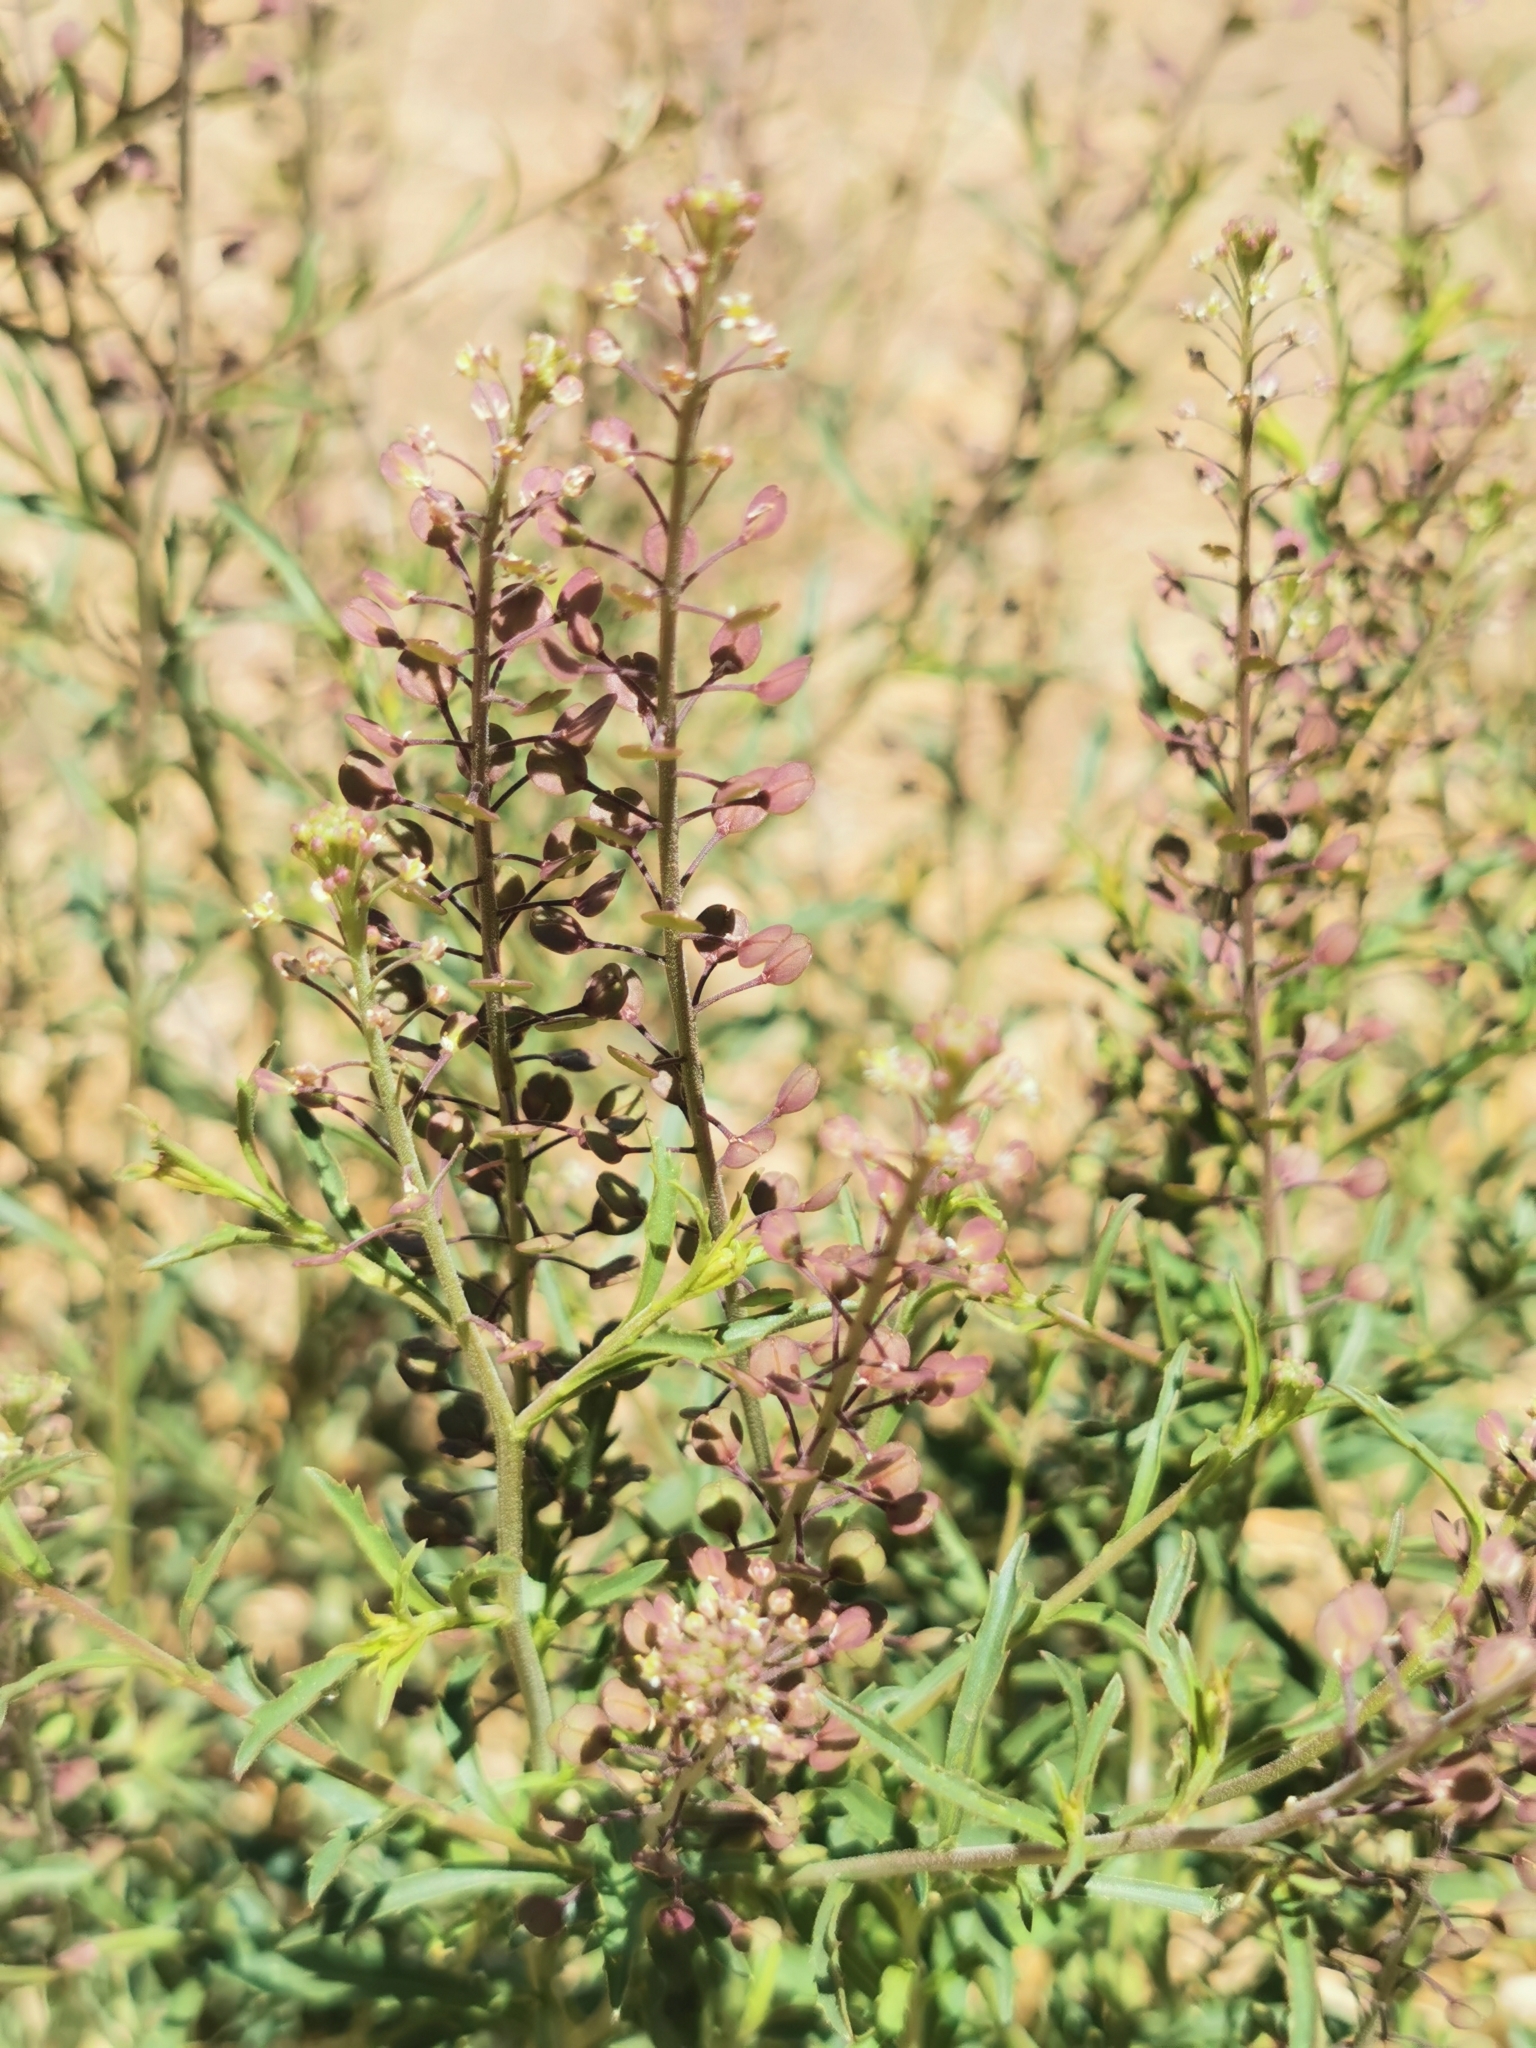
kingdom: Plantae
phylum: Tracheophyta
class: Magnoliopsida
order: Brassicales
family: Brassicaceae
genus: Lepidium
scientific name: Lepidium virginicum
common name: Least pepperwort
